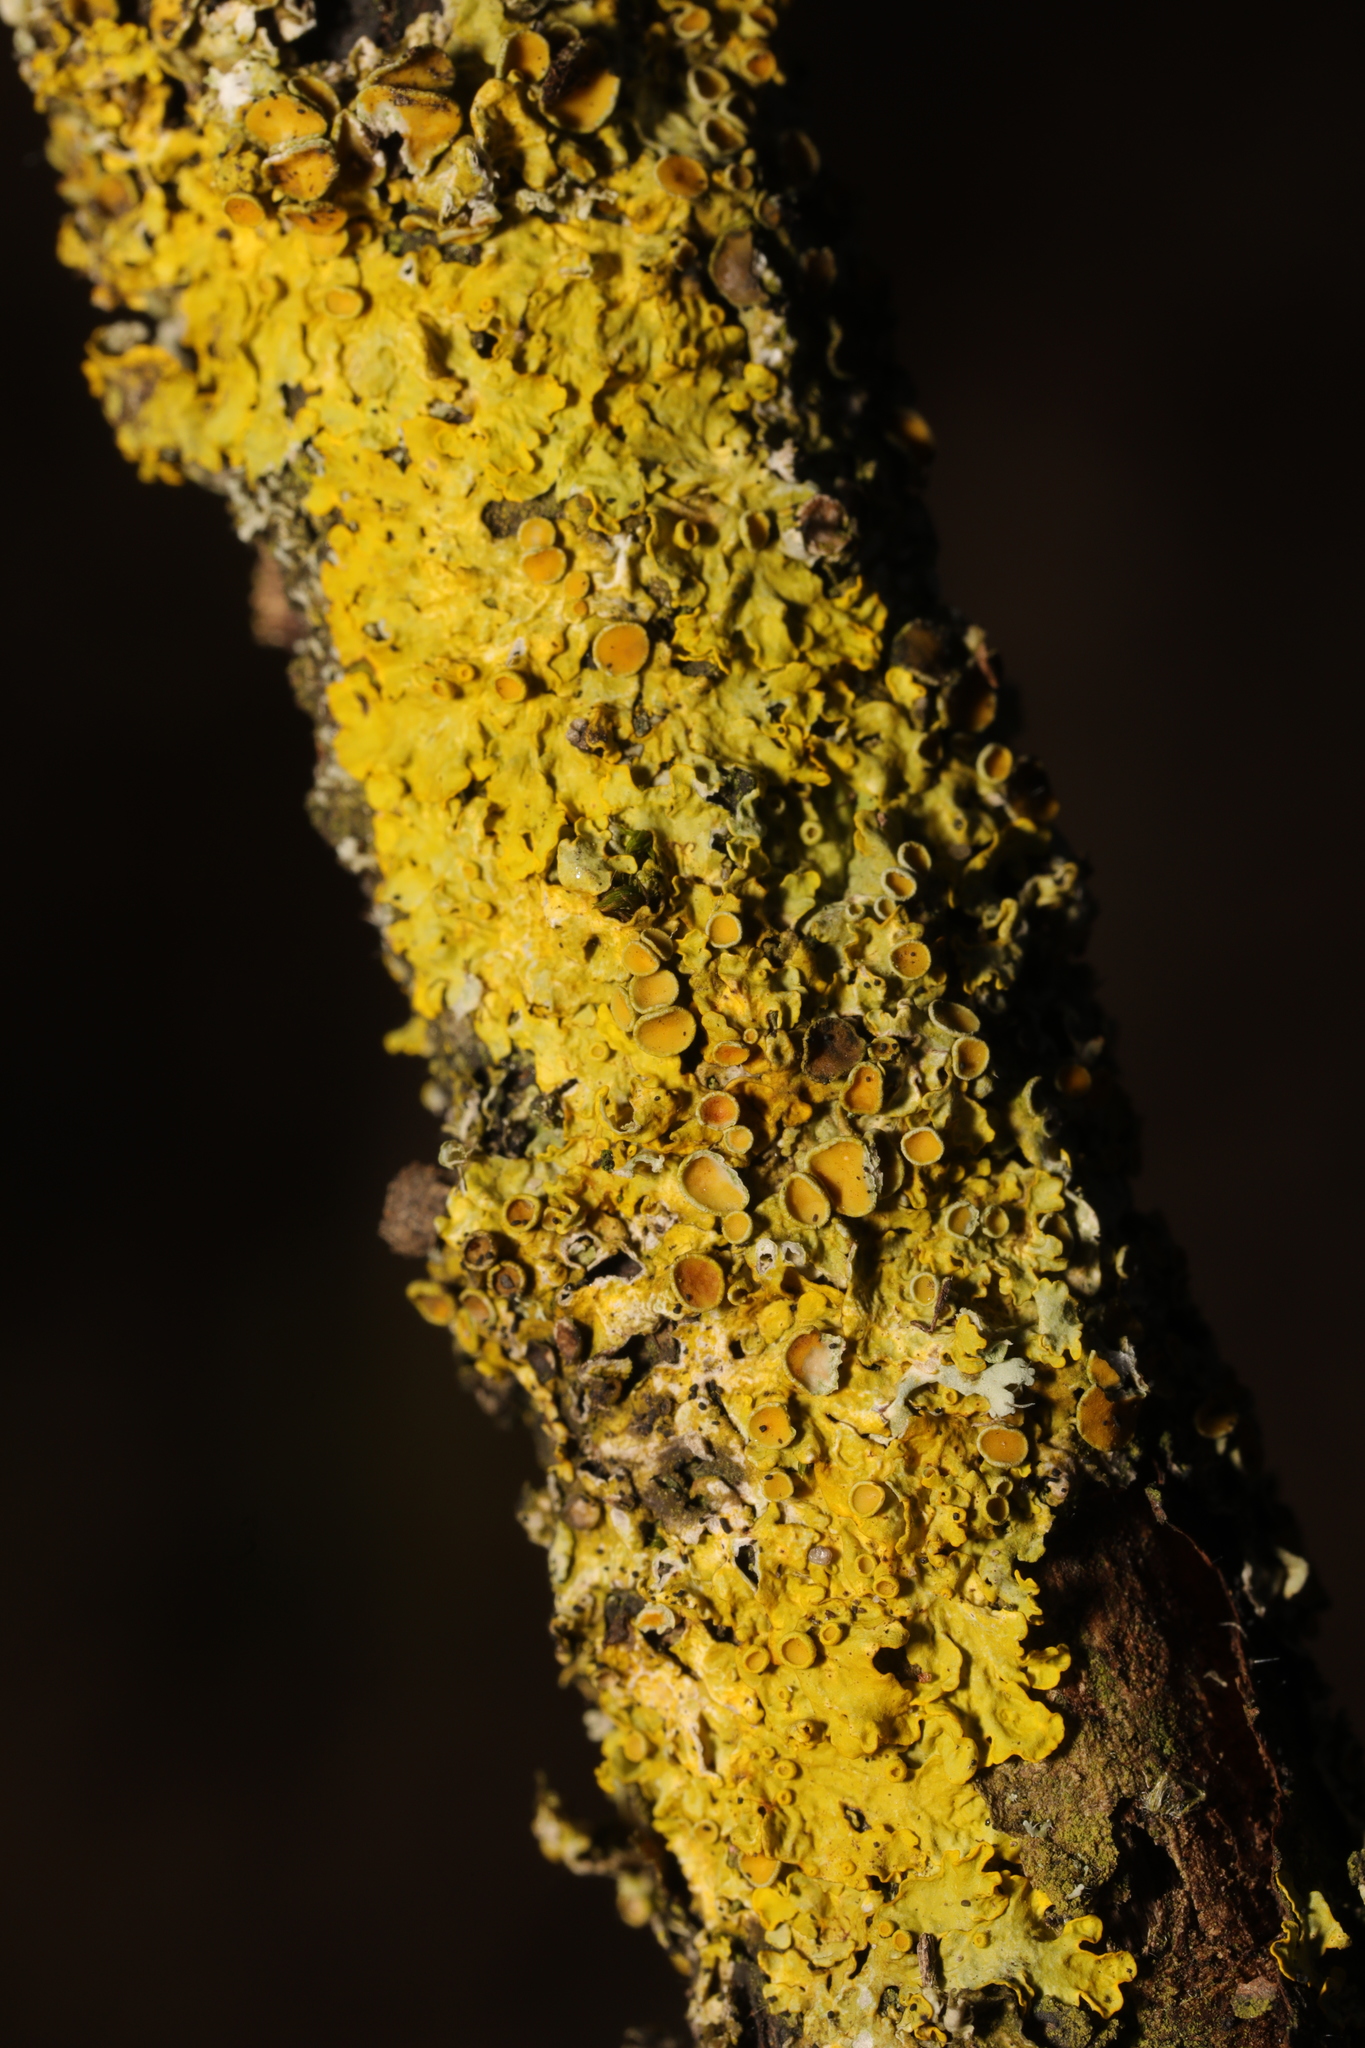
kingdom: Fungi
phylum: Ascomycota
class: Lecanoromycetes
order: Teloschistales
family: Teloschistaceae
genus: Xanthoria
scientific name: Xanthoria parietina
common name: Common orange lichen
